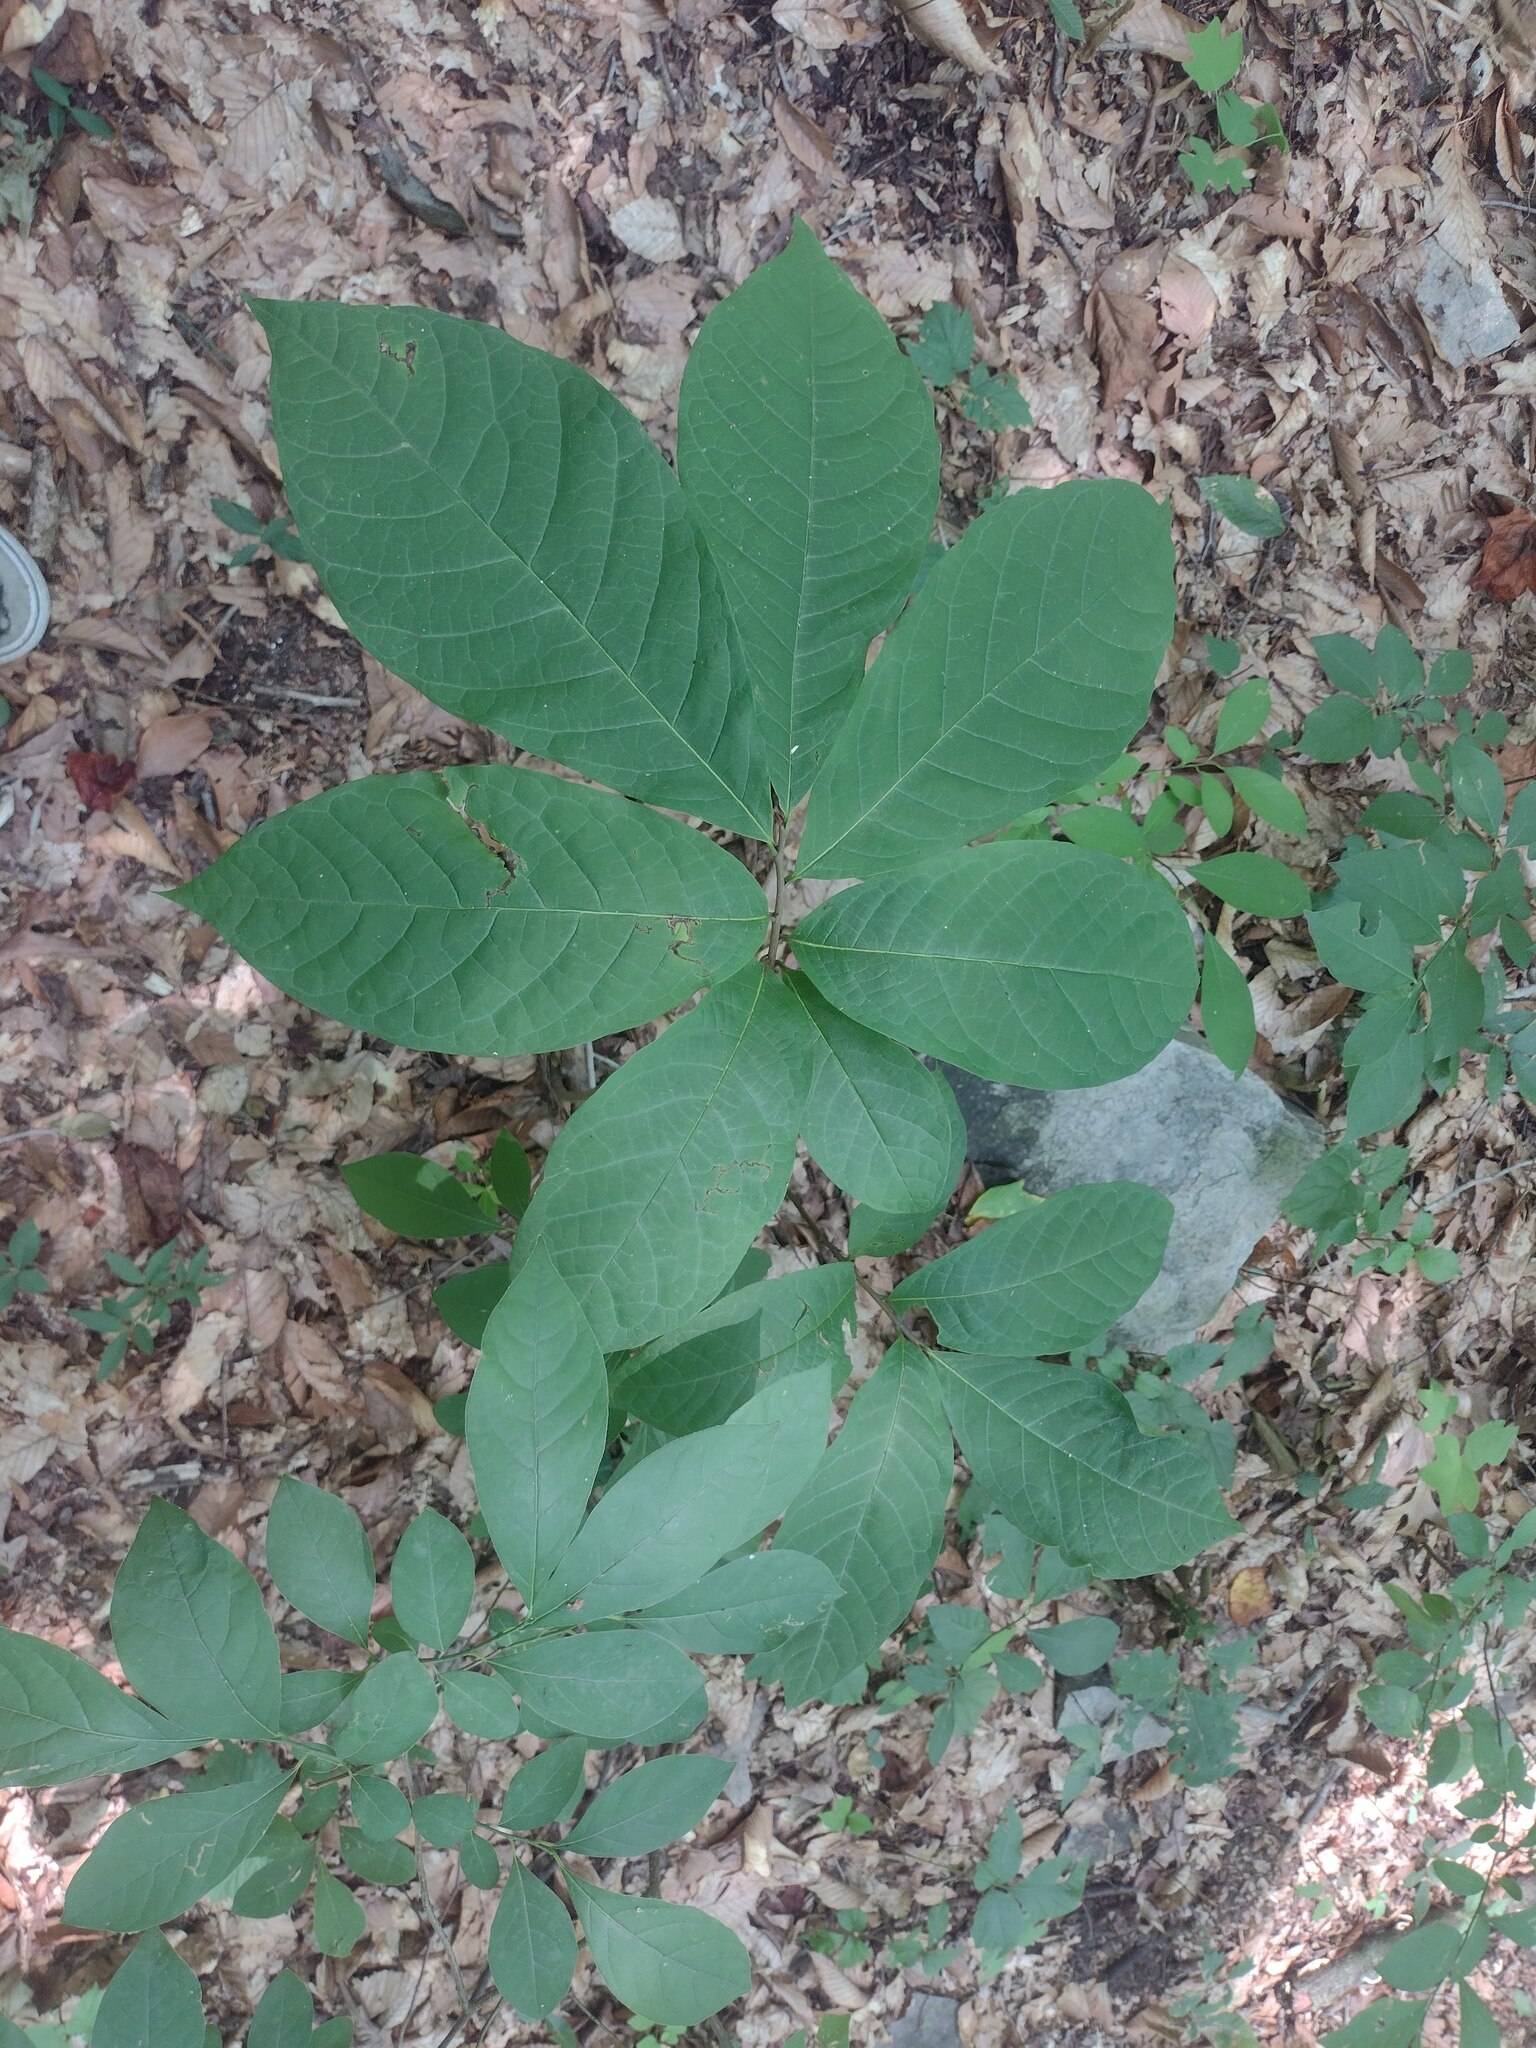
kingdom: Plantae
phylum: Tracheophyta
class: Magnoliopsida
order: Magnoliales
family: Annonaceae
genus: Asimina
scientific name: Asimina triloba
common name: Dog-banana
